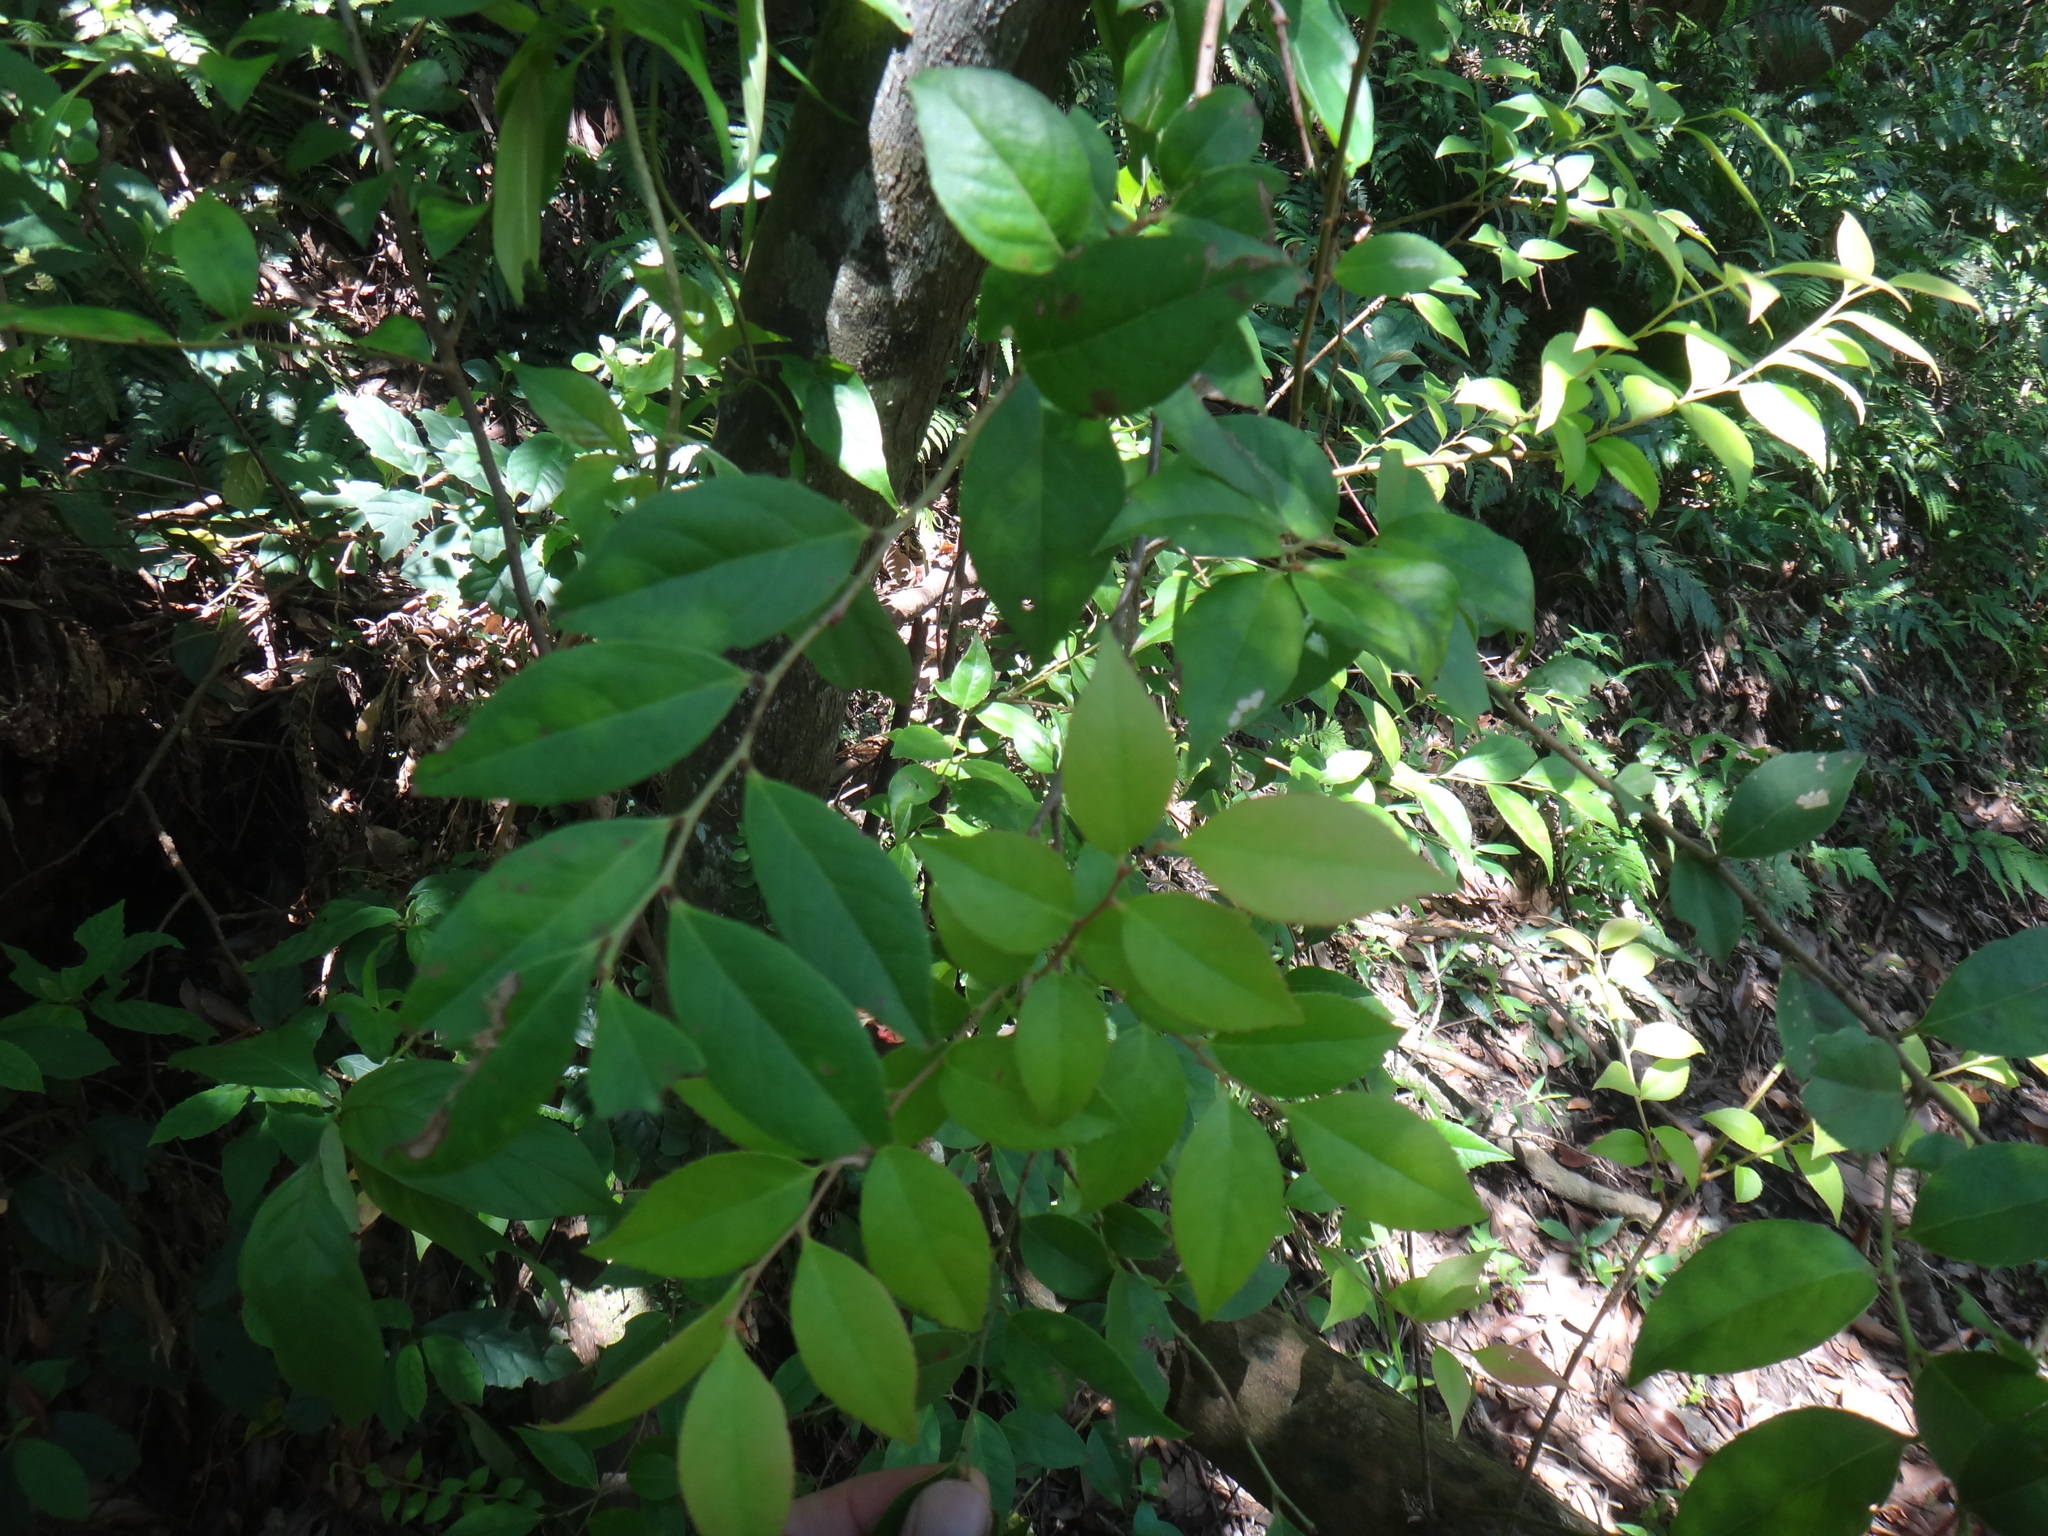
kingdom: Plantae
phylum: Tracheophyta
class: Magnoliopsida
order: Ericales
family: Ericaceae
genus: Vaccinium
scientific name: Vaccinium bracteatum
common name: Sea bilberry
